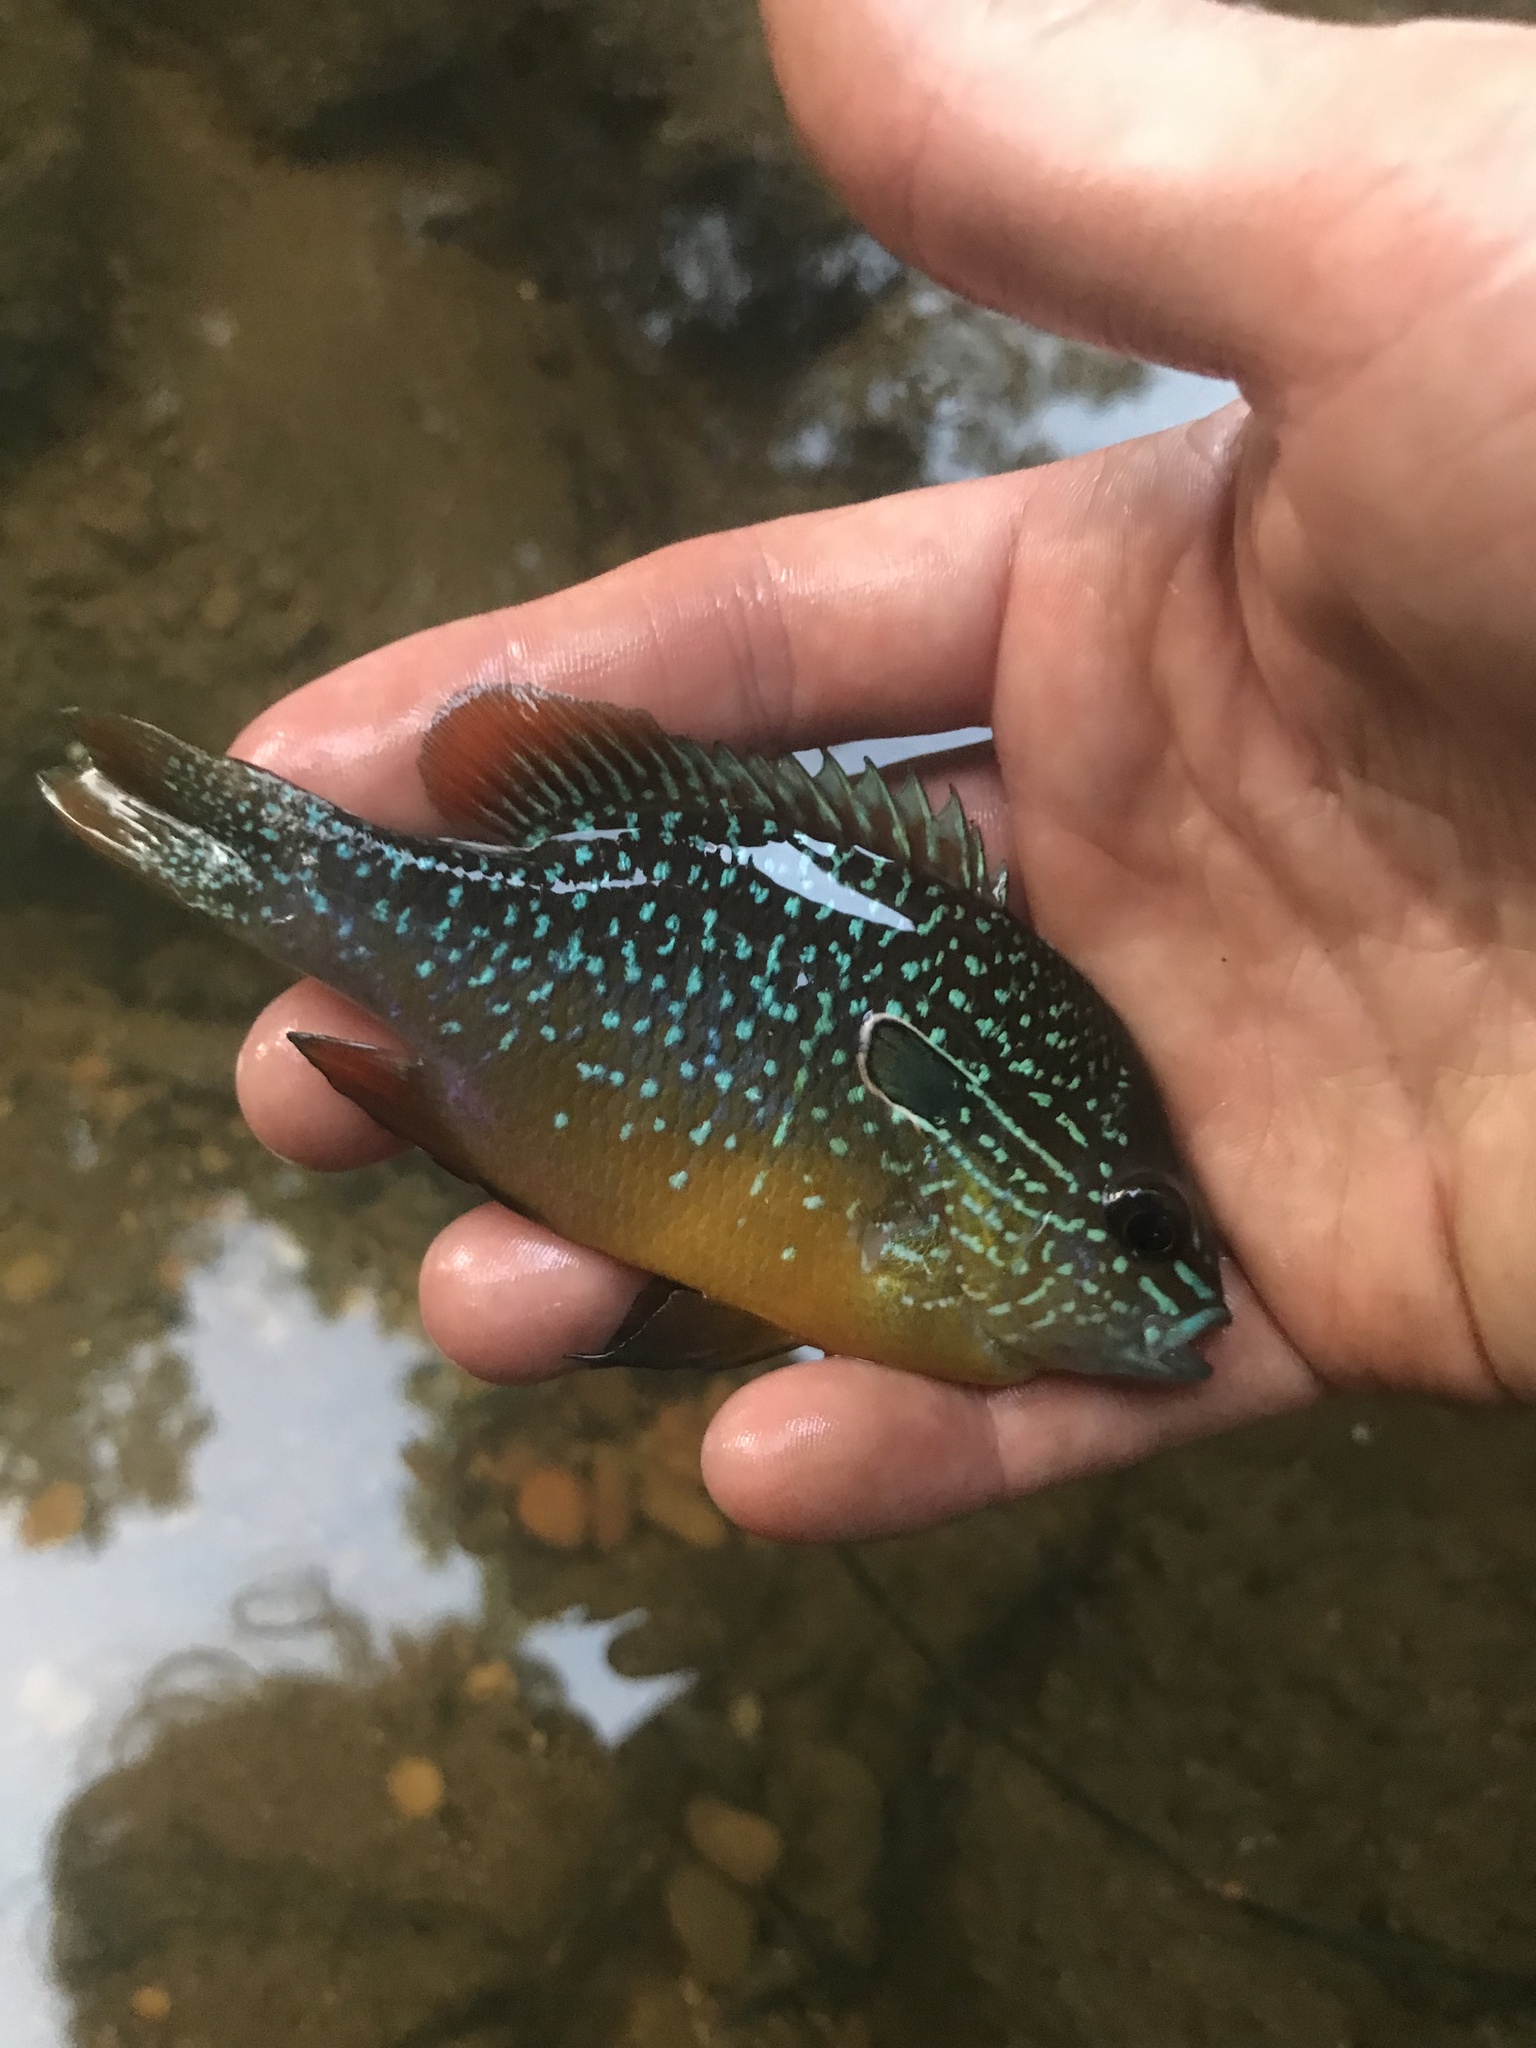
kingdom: Animalia
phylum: Chordata
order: Perciformes
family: Centrarchidae
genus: Lepomis
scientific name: Lepomis megalotis
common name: Longear sunfish
